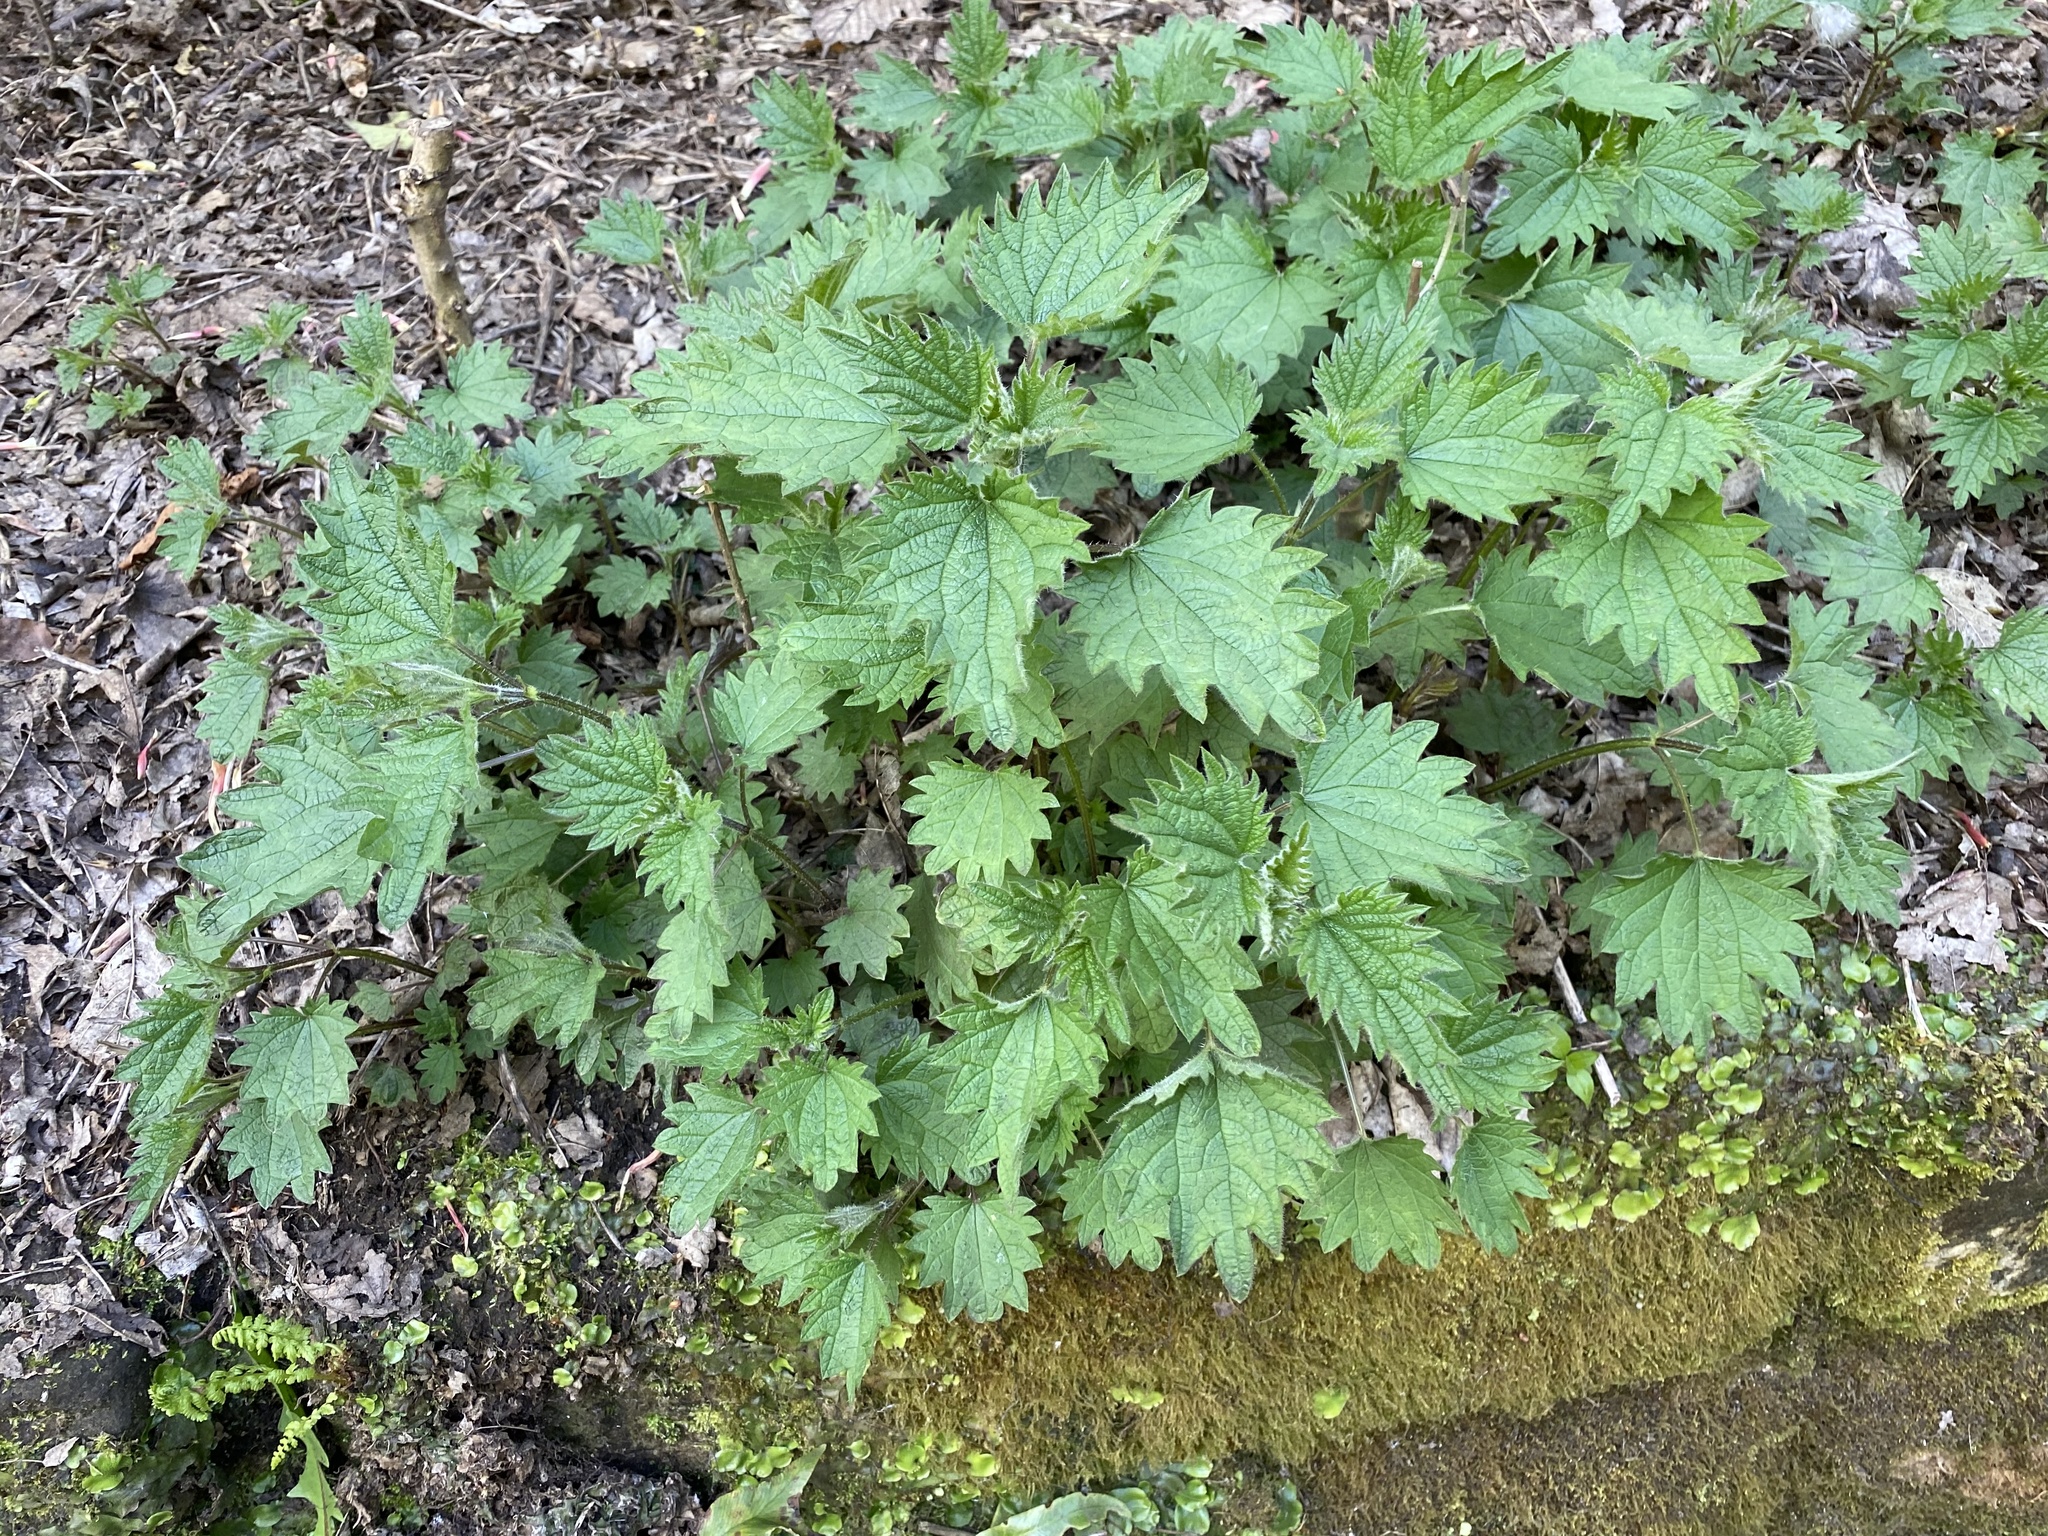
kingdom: Plantae
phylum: Tracheophyta
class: Magnoliopsida
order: Rosales
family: Urticaceae
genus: Urtica
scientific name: Urtica dioica
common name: Common nettle
